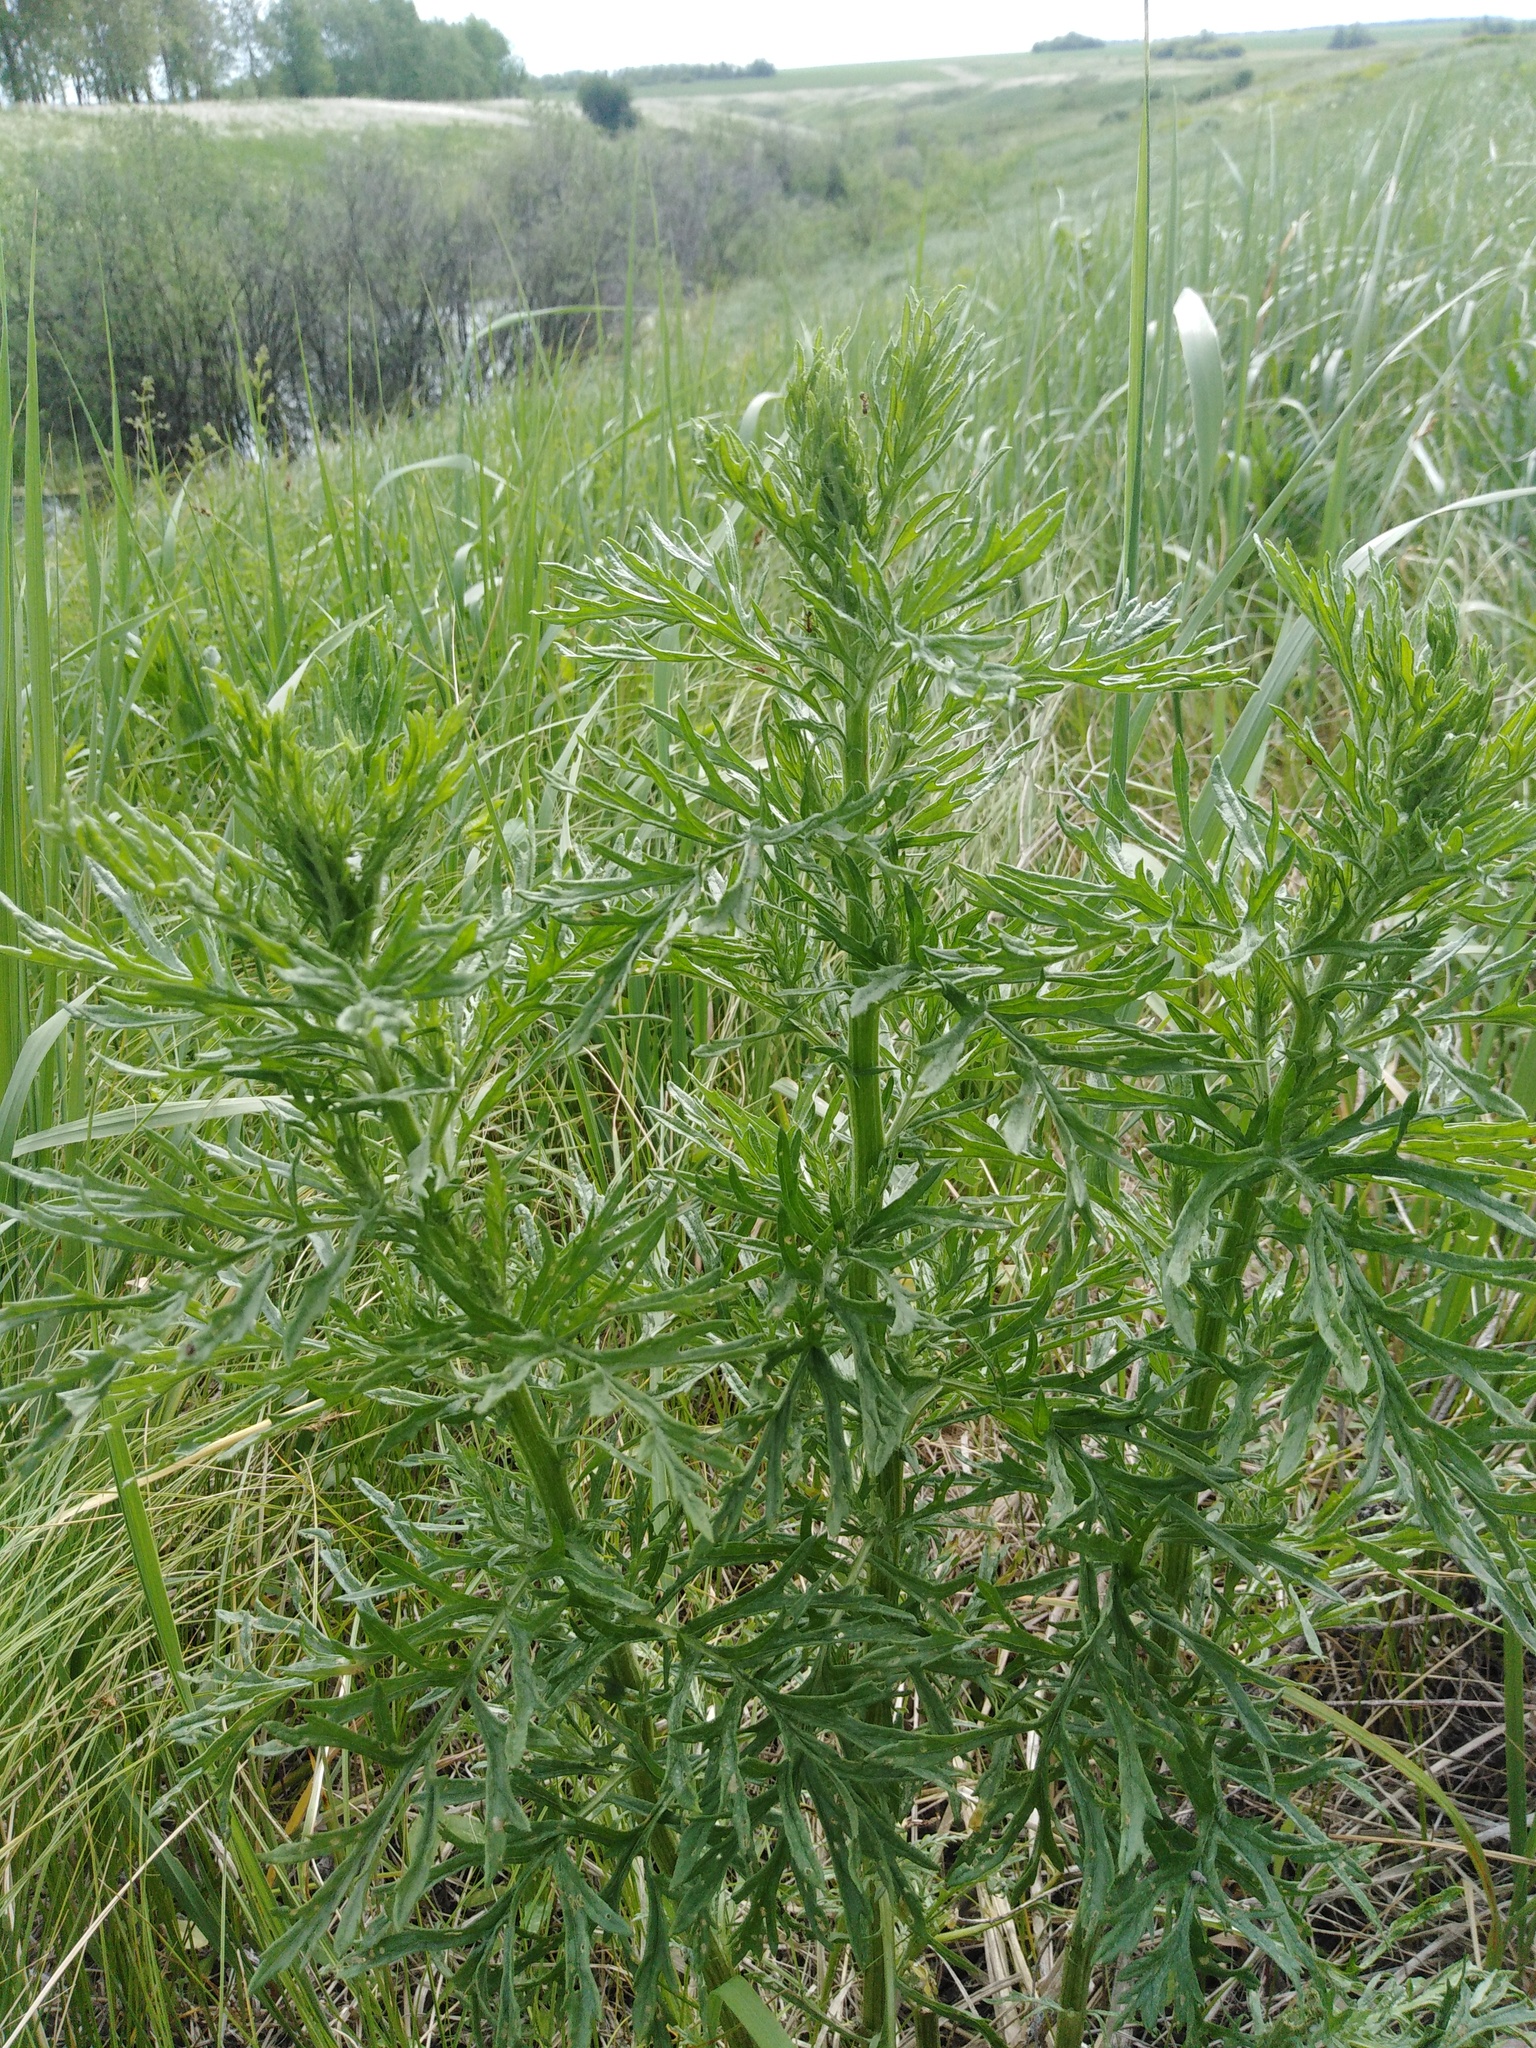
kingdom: Plantae
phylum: Tracheophyta
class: Magnoliopsida
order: Asterales
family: Asteraceae
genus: Jacobaea
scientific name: Jacobaea erucifolia
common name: Hoary ragwort
